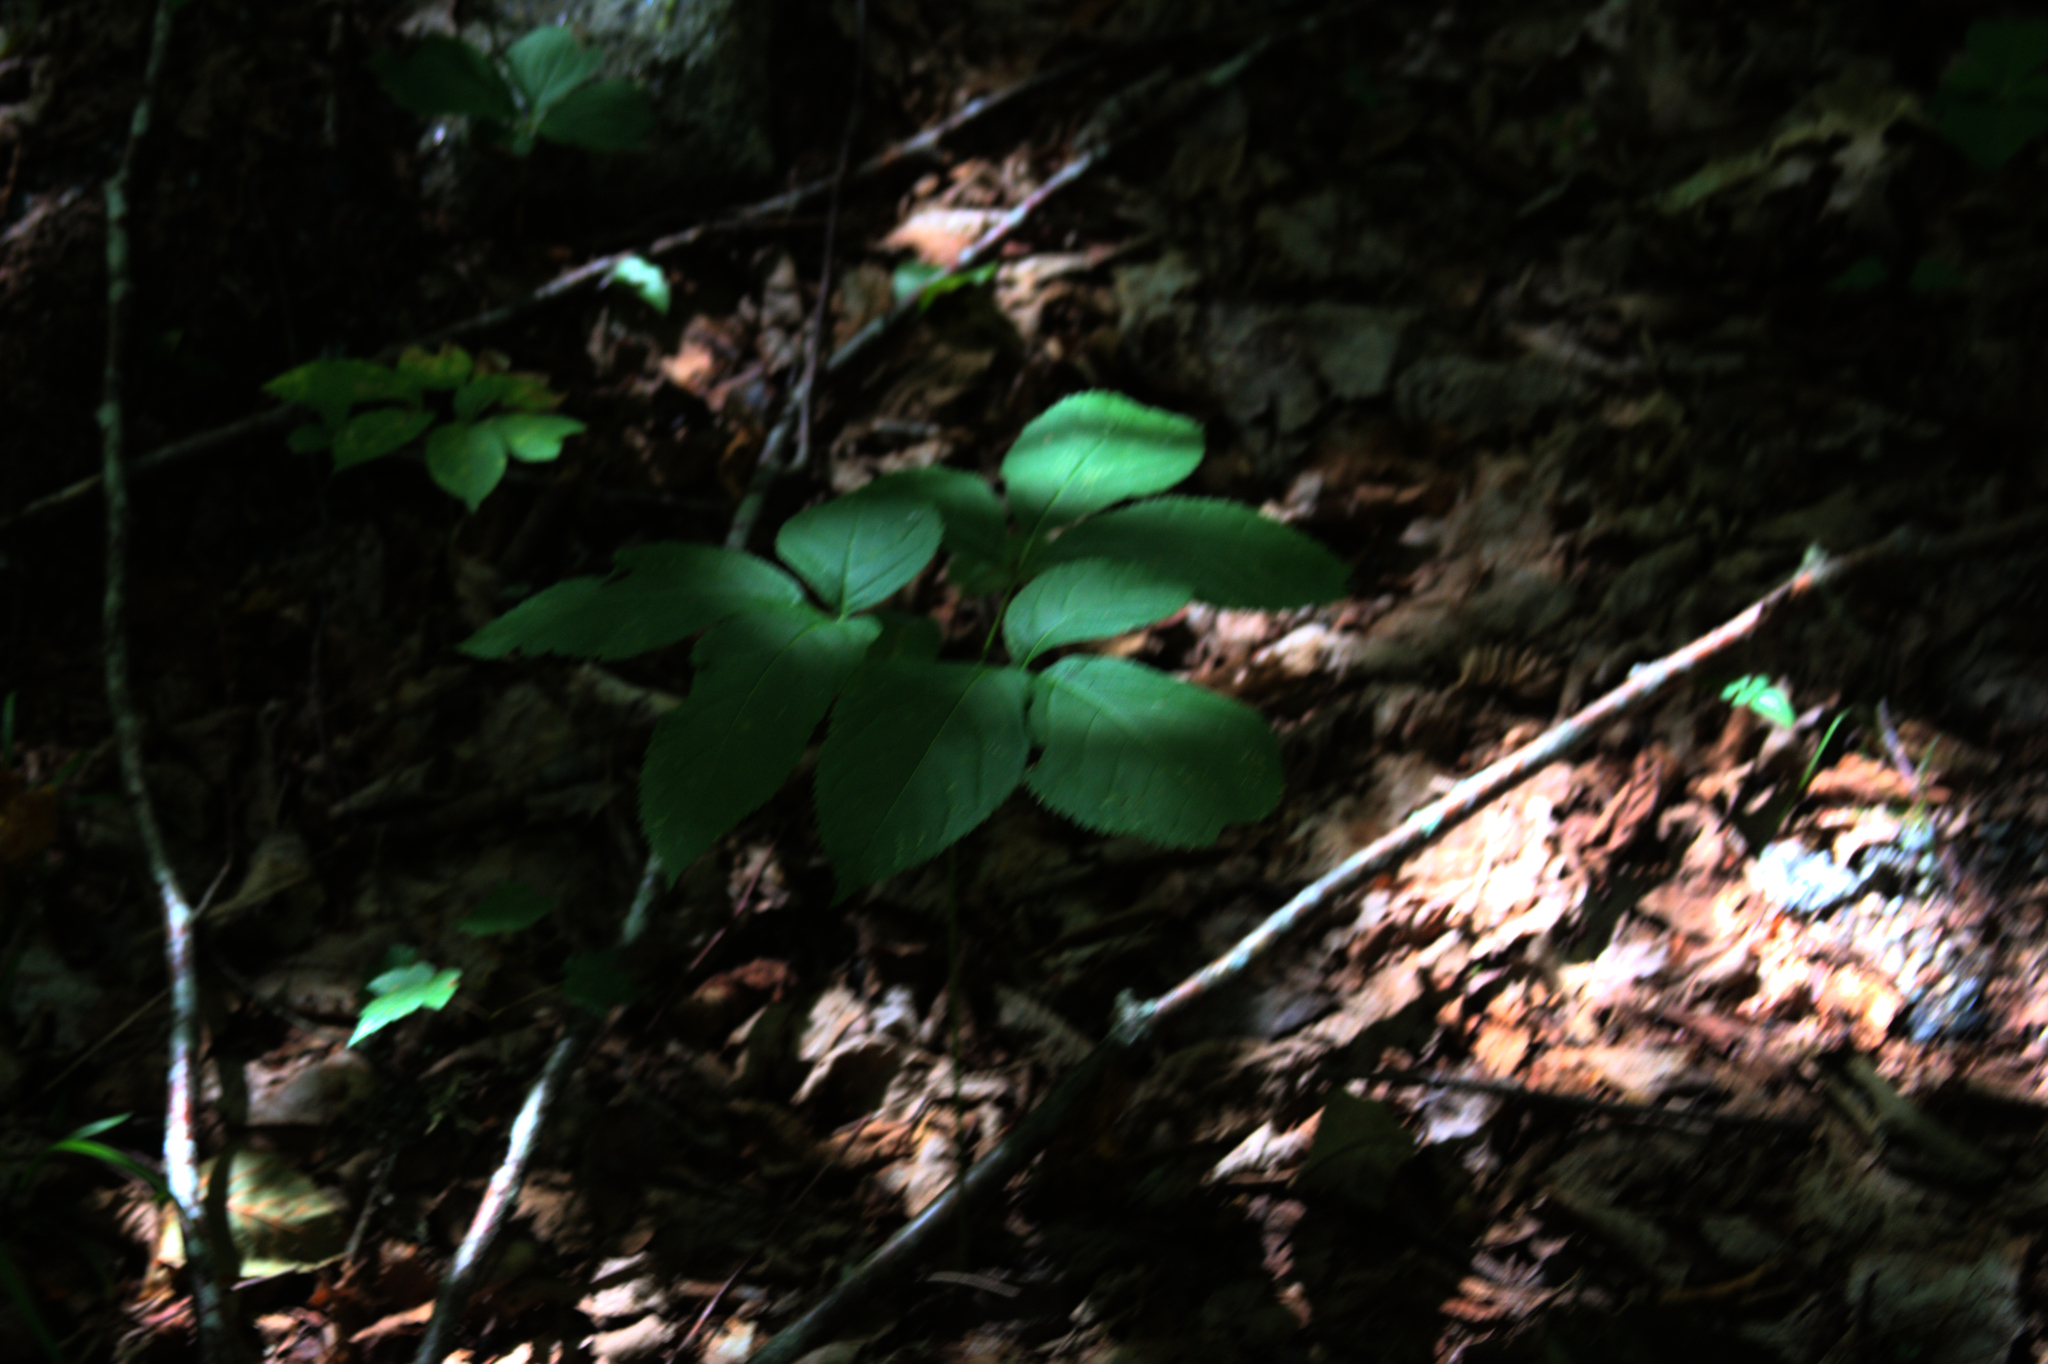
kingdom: Plantae
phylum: Tracheophyta
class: Magnoliopsida
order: Apiales
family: Araliaceae
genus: Aralia
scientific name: Aralia nudicaulis
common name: Wild sarsaparilla
